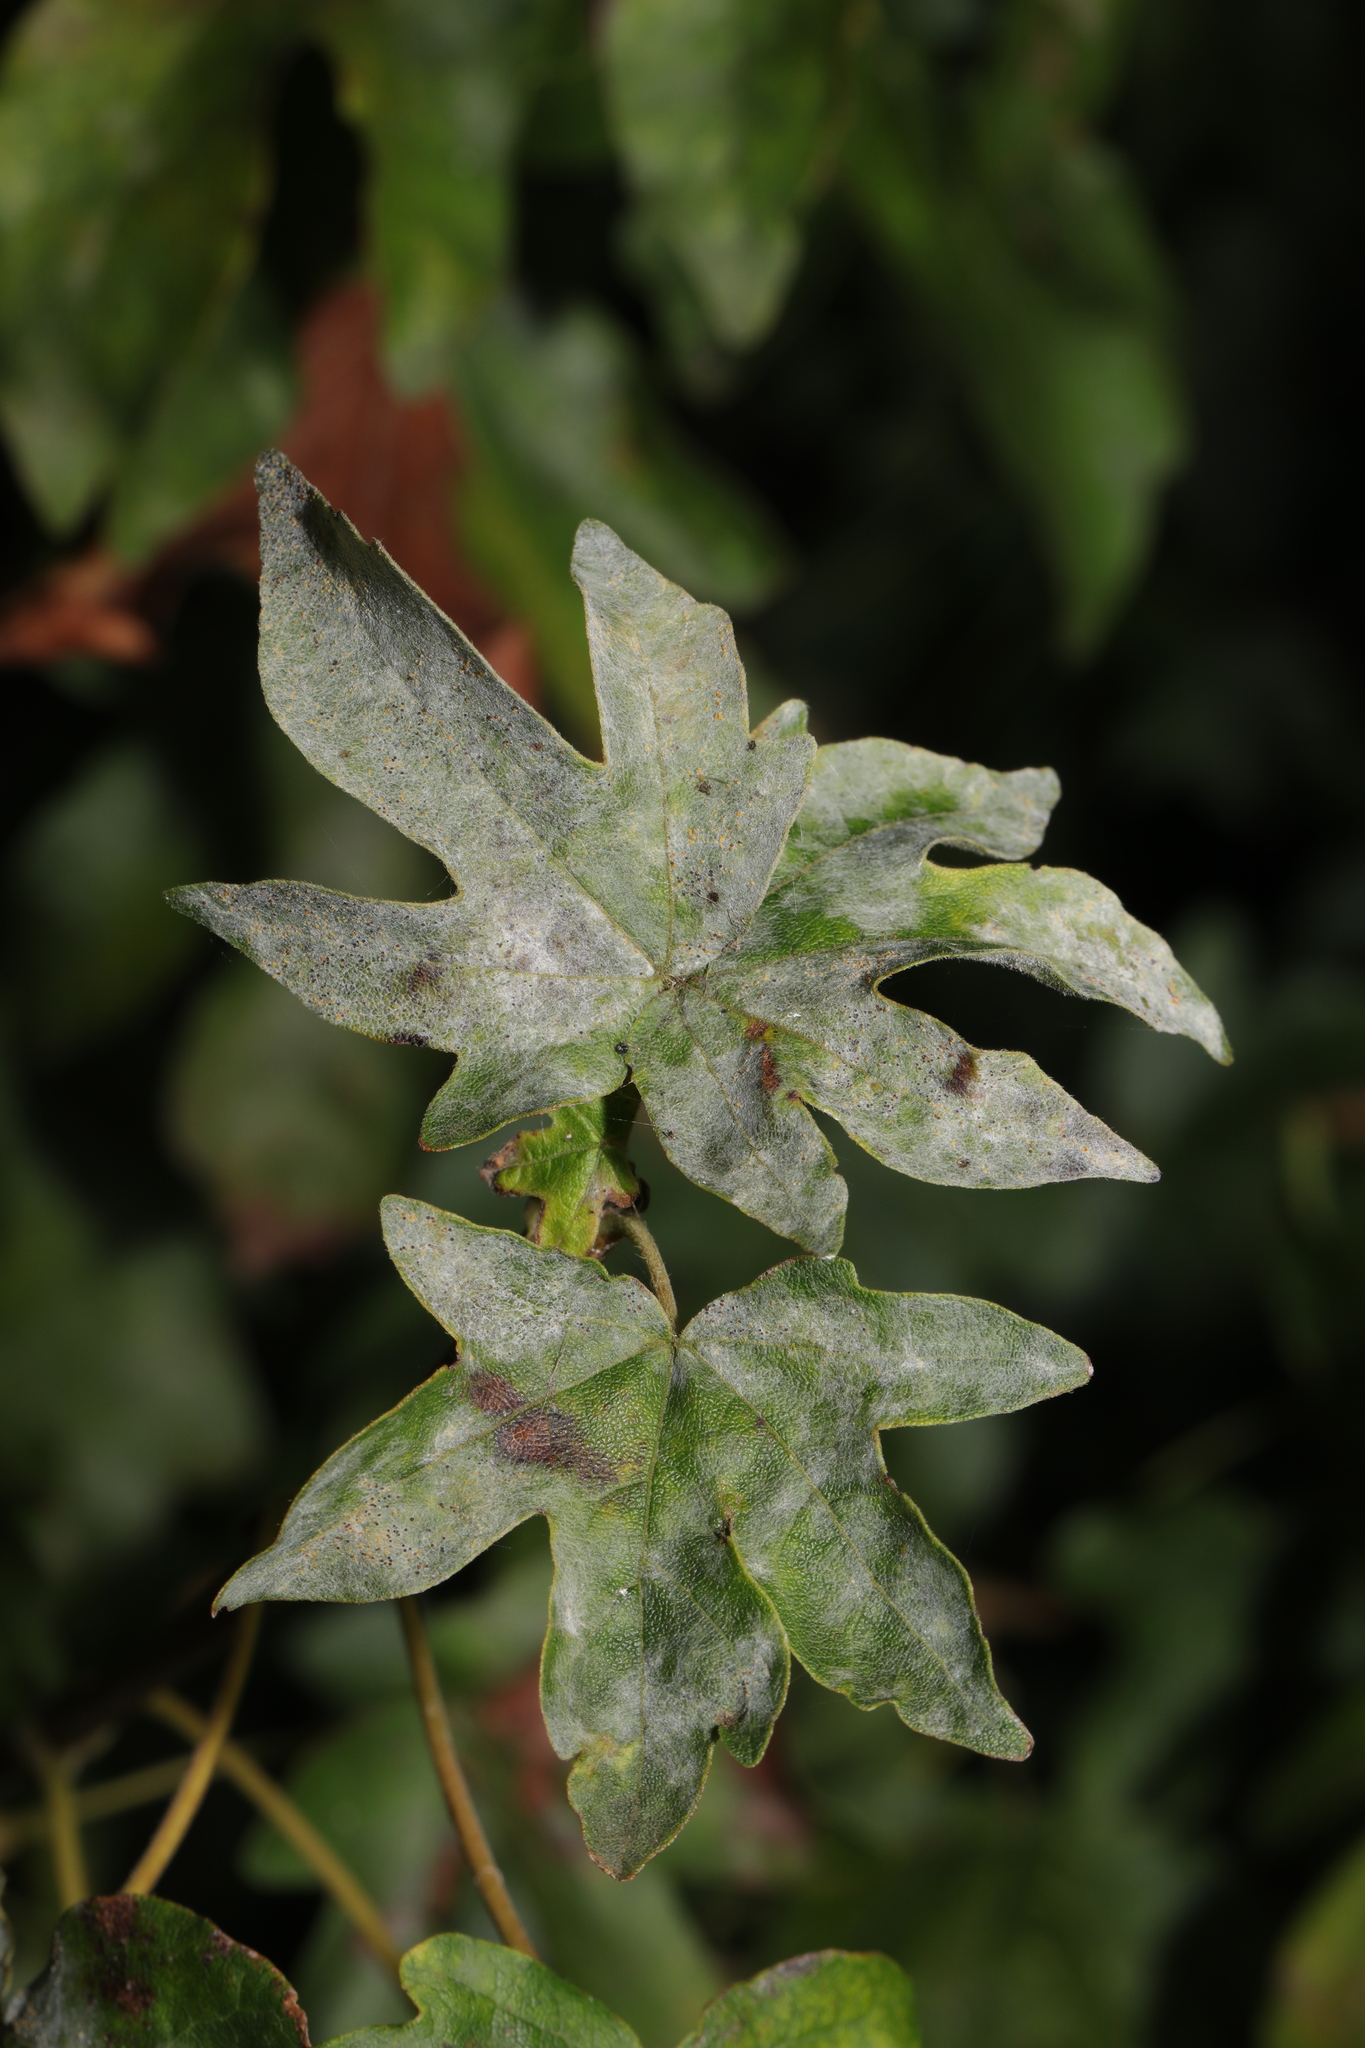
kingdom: Fungi
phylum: Ascomycota
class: Leotiomycetes
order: Helotiales
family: Erysiphaceae
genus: Sawadaea
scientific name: Sawadaea bicornis
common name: Maple mildew
